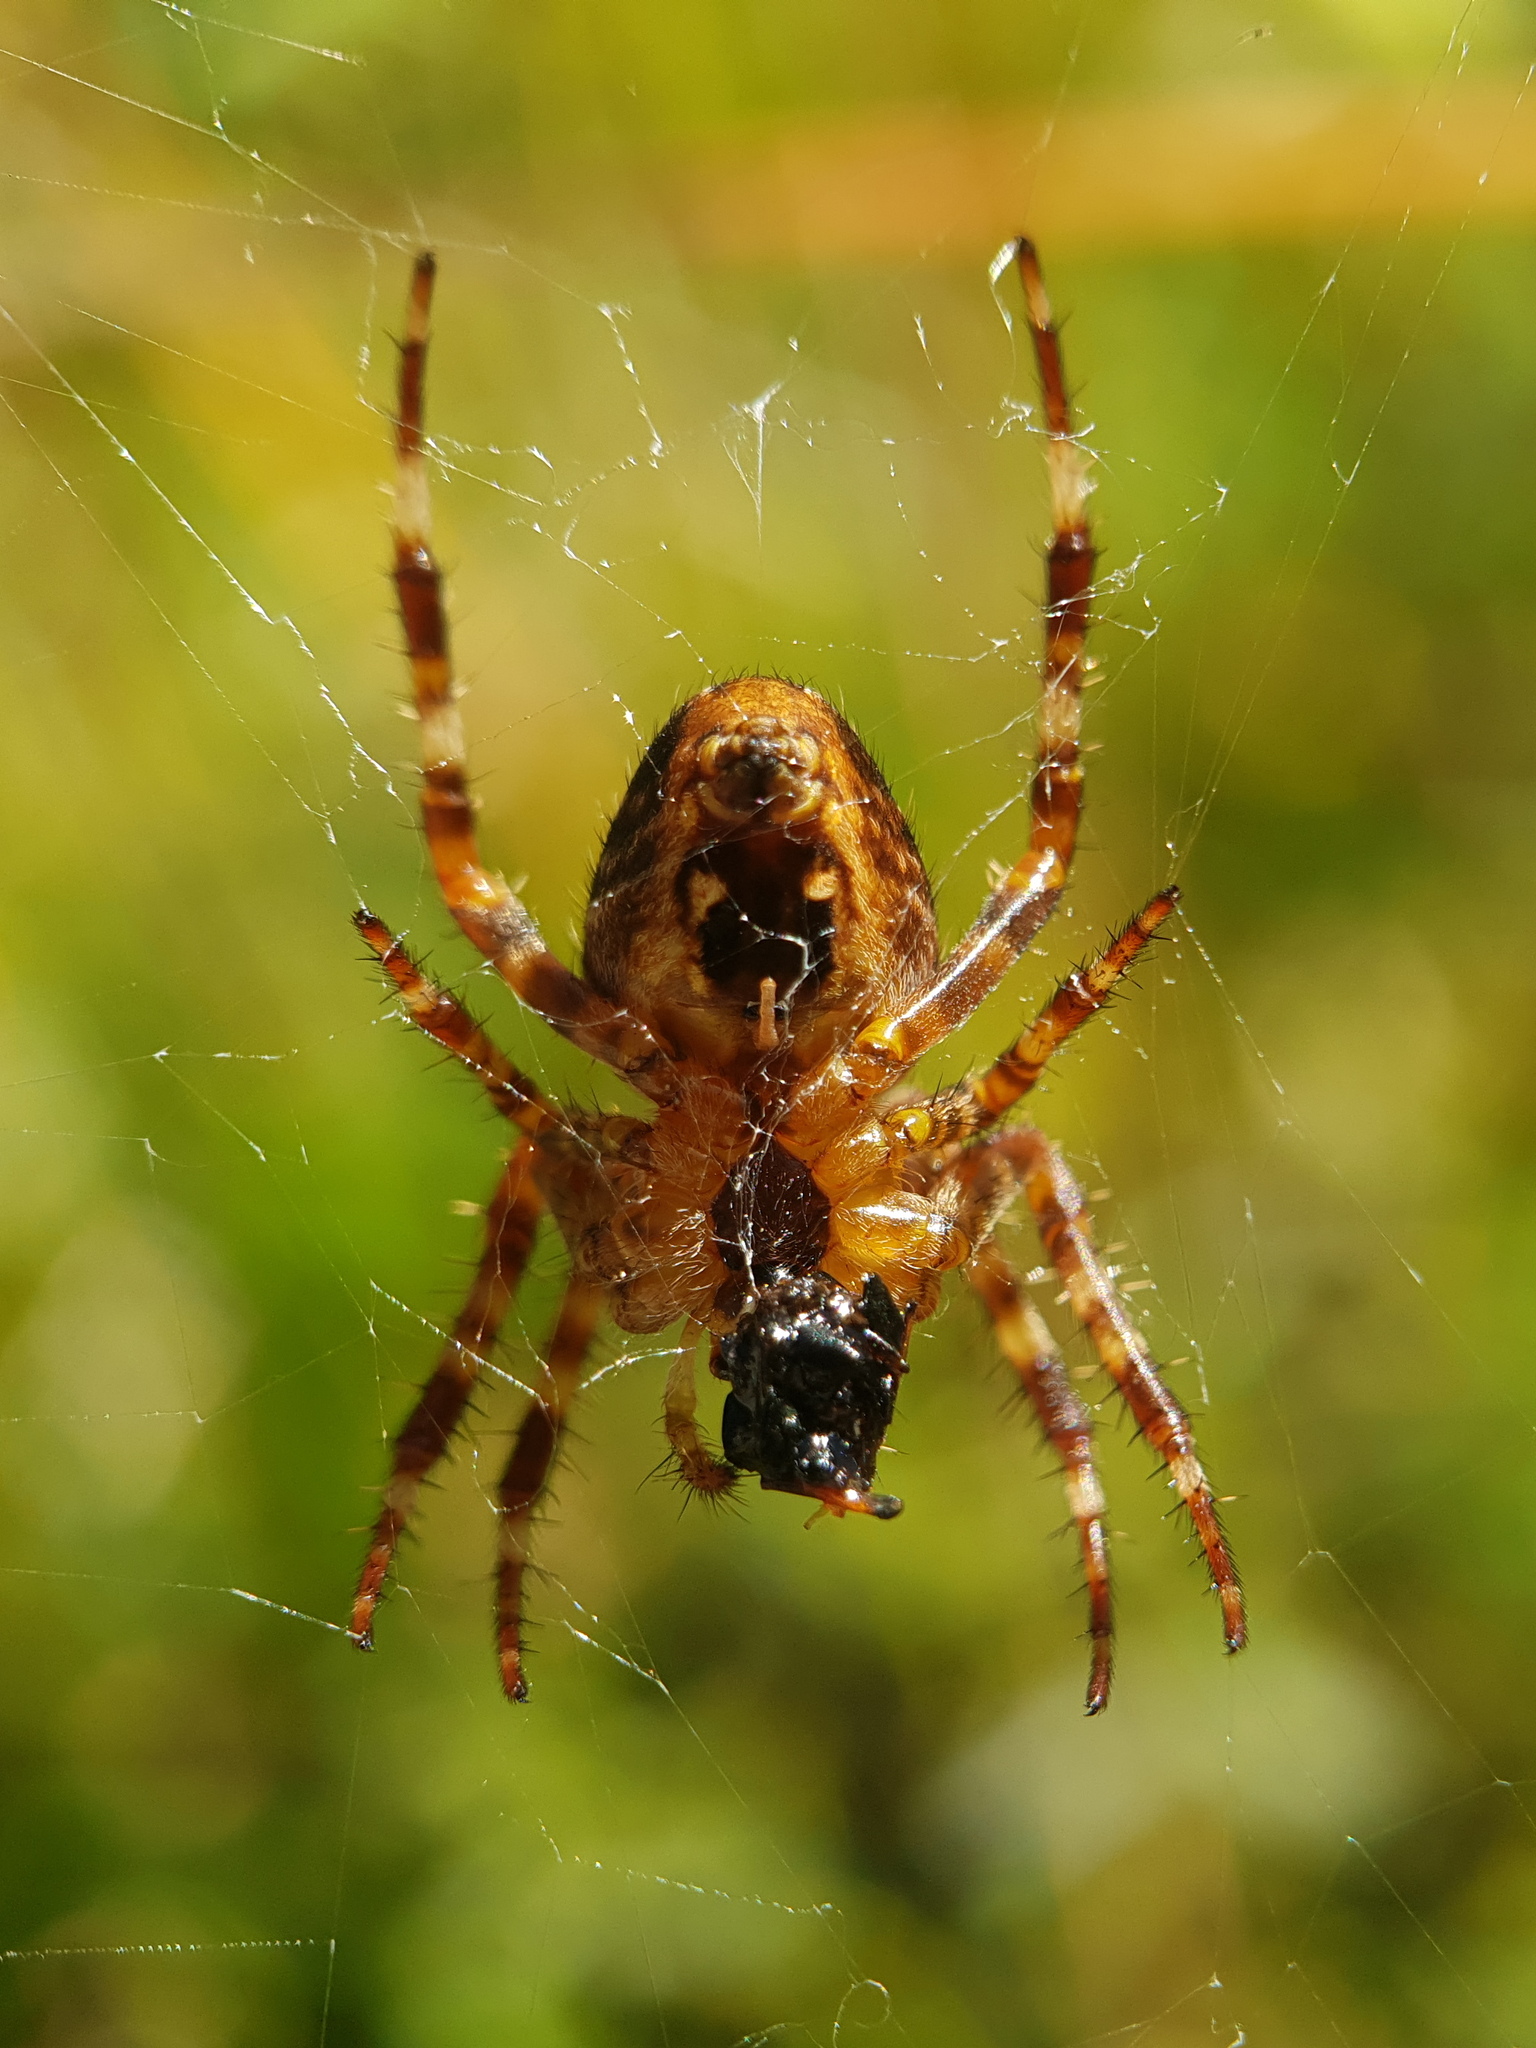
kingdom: Animalia
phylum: Arthropoda
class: Arachnida
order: Araneae
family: Araneidae
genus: Araneus
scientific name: Araneus diadematus
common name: Cross orbweaver
